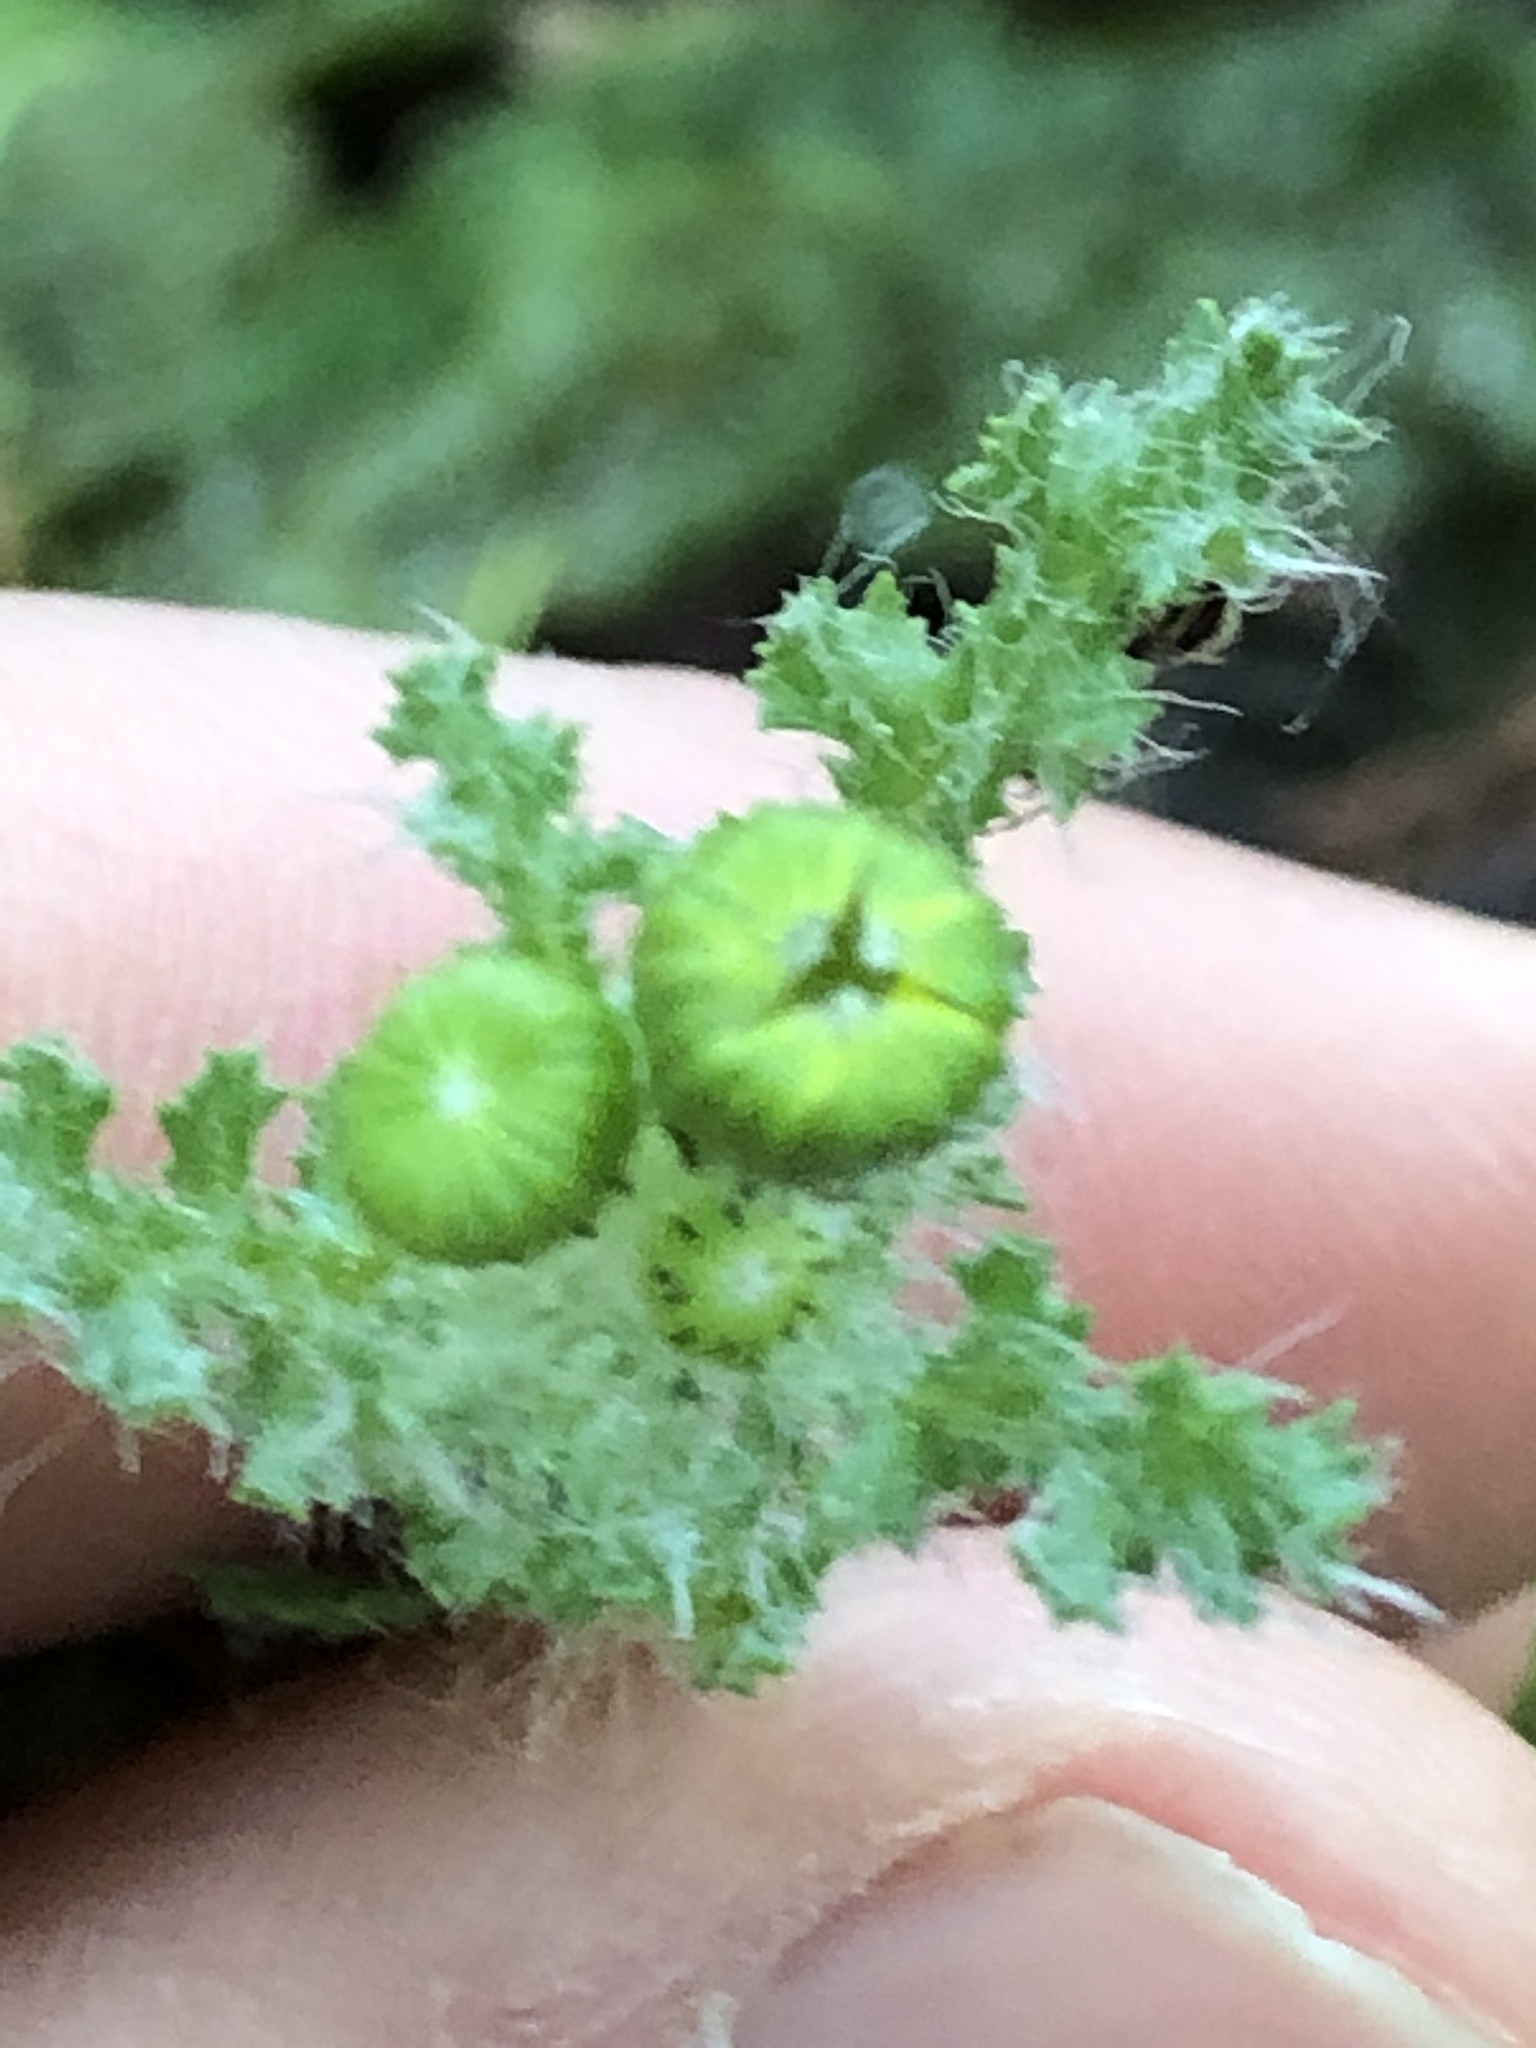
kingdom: Plantae
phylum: Tracheophyta
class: Magnoliopsida
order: Asterales
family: Asteraceae
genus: Senecio
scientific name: Senecio vernalis
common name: Eastern groundsel
